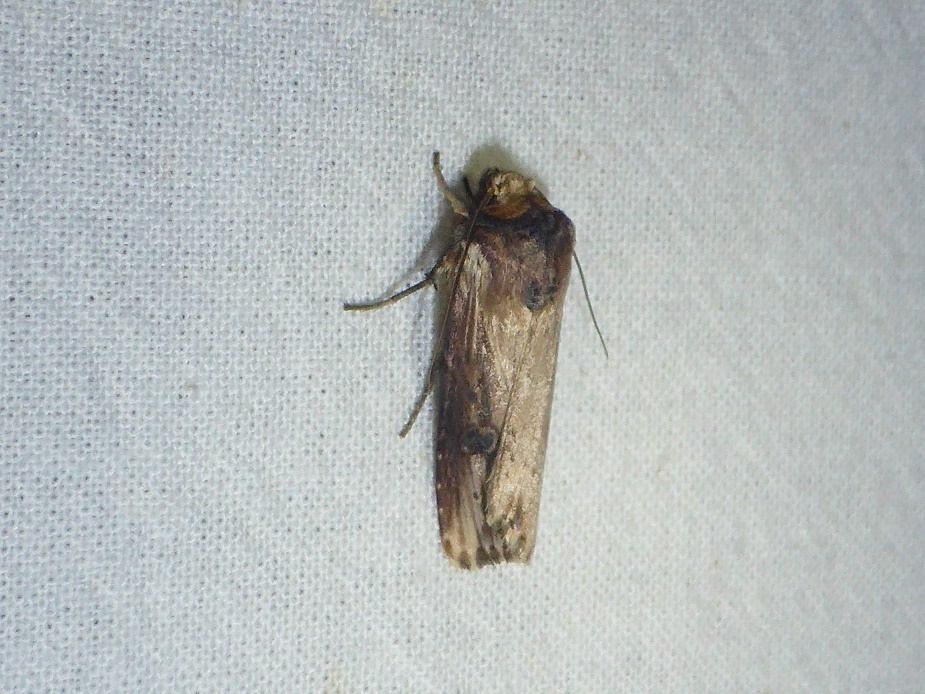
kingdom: Animalia
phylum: Arthropoda
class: Insecta
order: Lepidoptera
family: Noctuidae
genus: Axylia
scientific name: Axylia putris
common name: Flame
